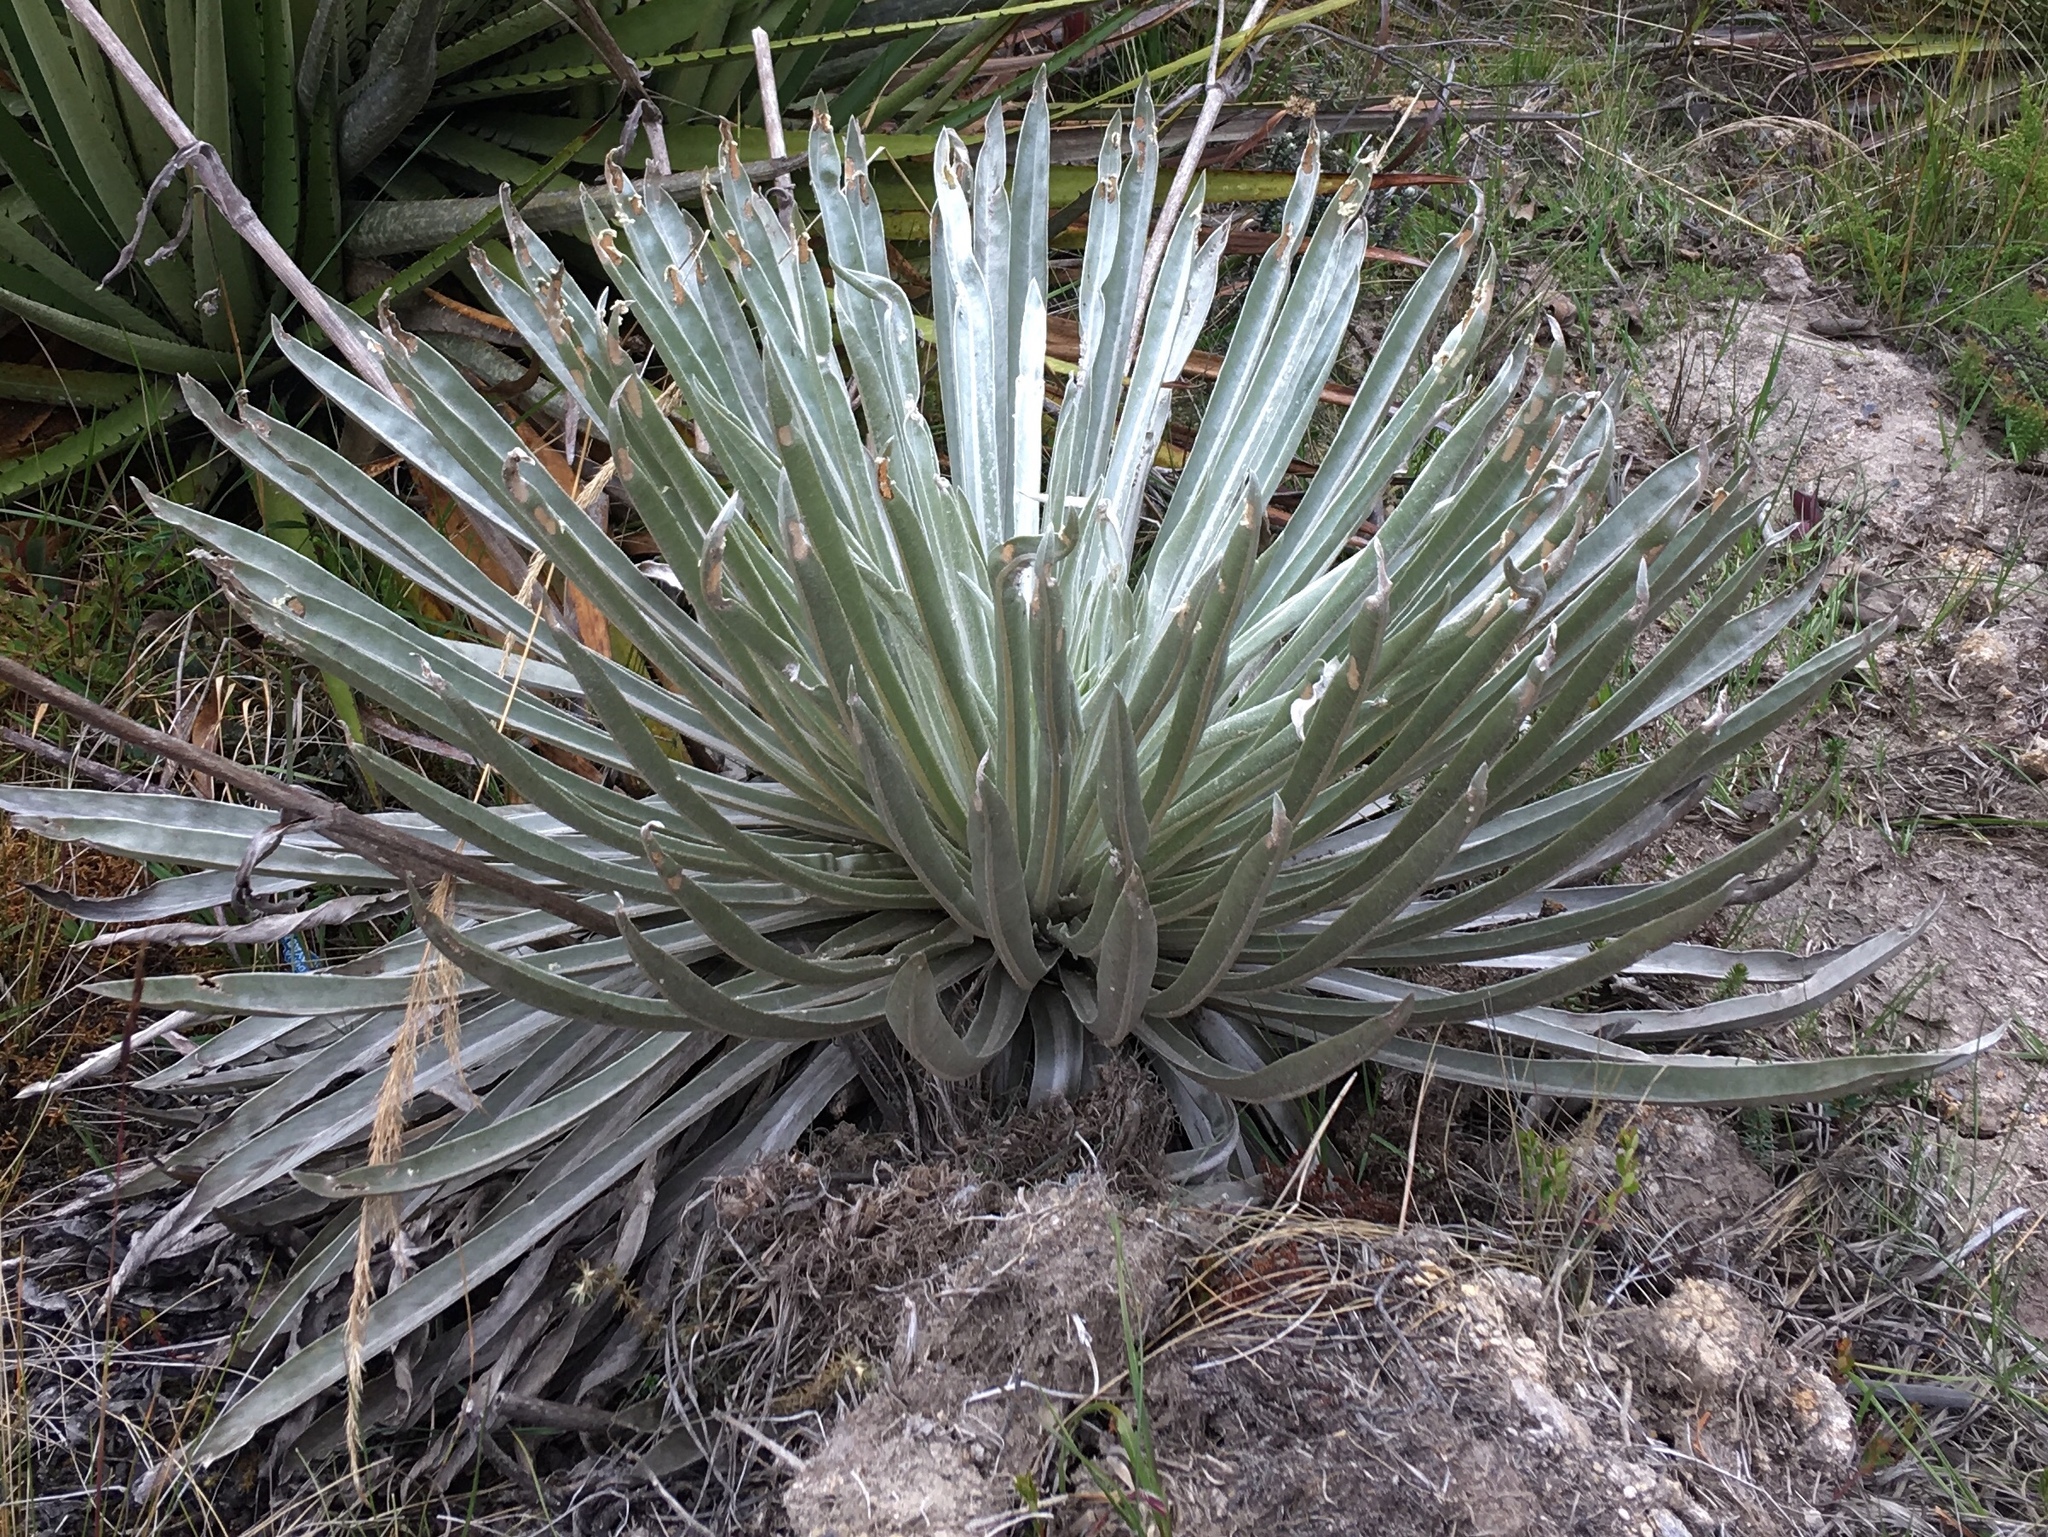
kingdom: Plantae
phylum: Tracheophyta
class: Magnoliopsida
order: Asterales
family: Asteraceae
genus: Espeletia
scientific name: Espeletia argentea
